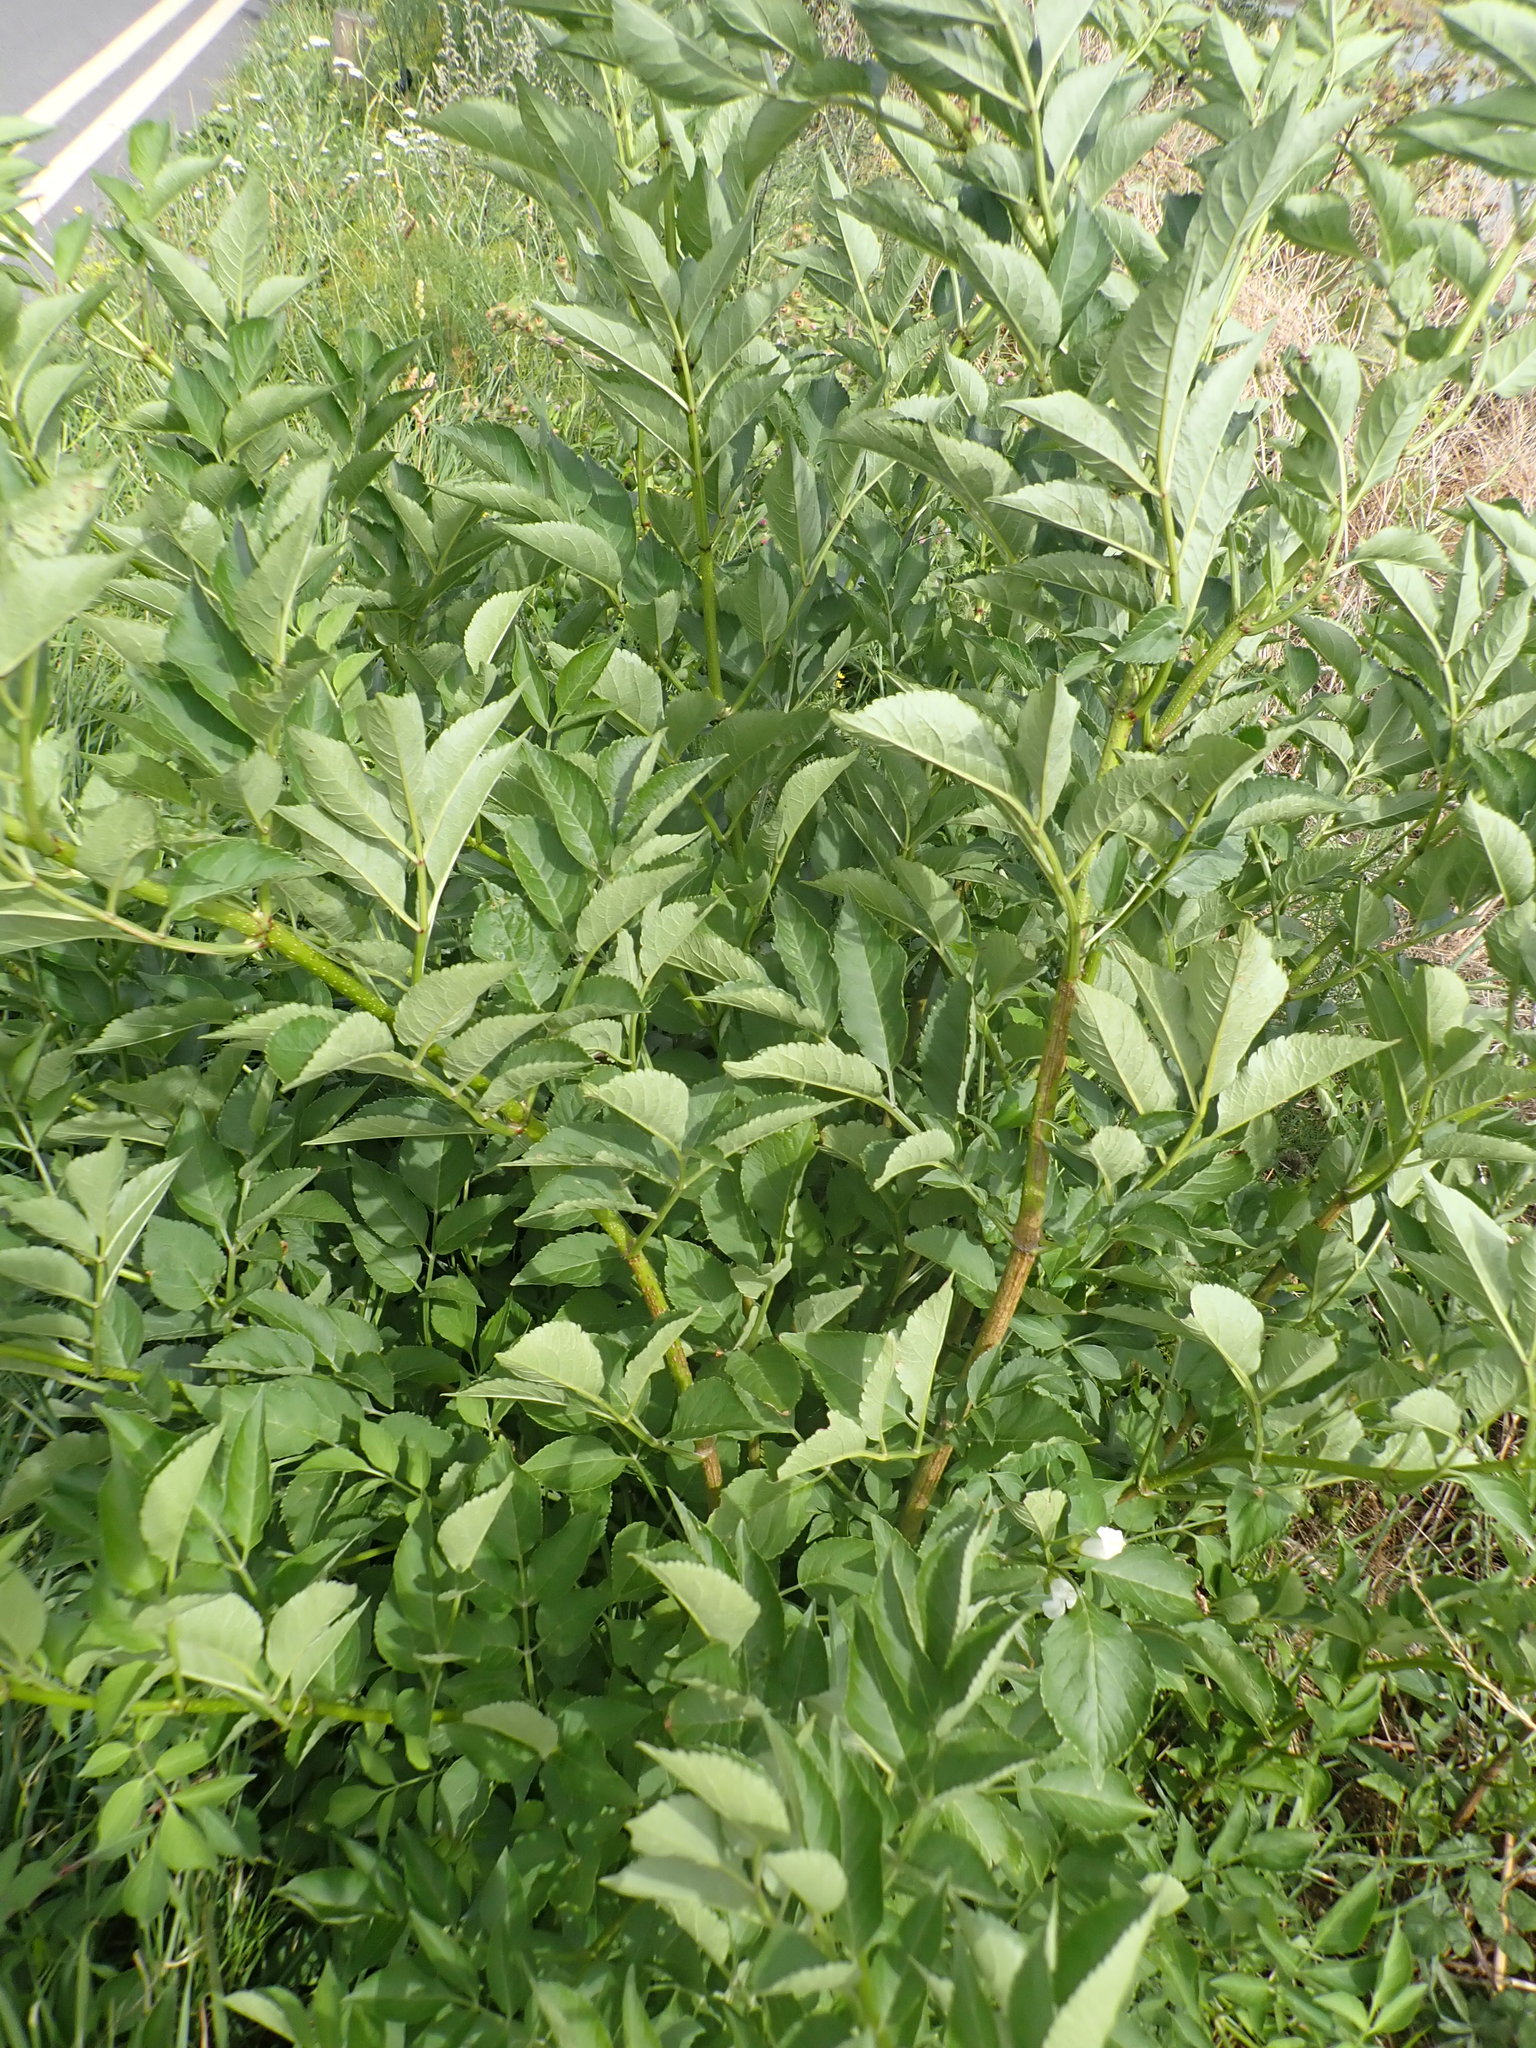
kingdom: Plantae
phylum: Tracheophyta
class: Magnoliopsida
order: Dipsacales
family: Viburnaceae
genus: Sambucus
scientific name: Sambucus nigra
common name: Elder
